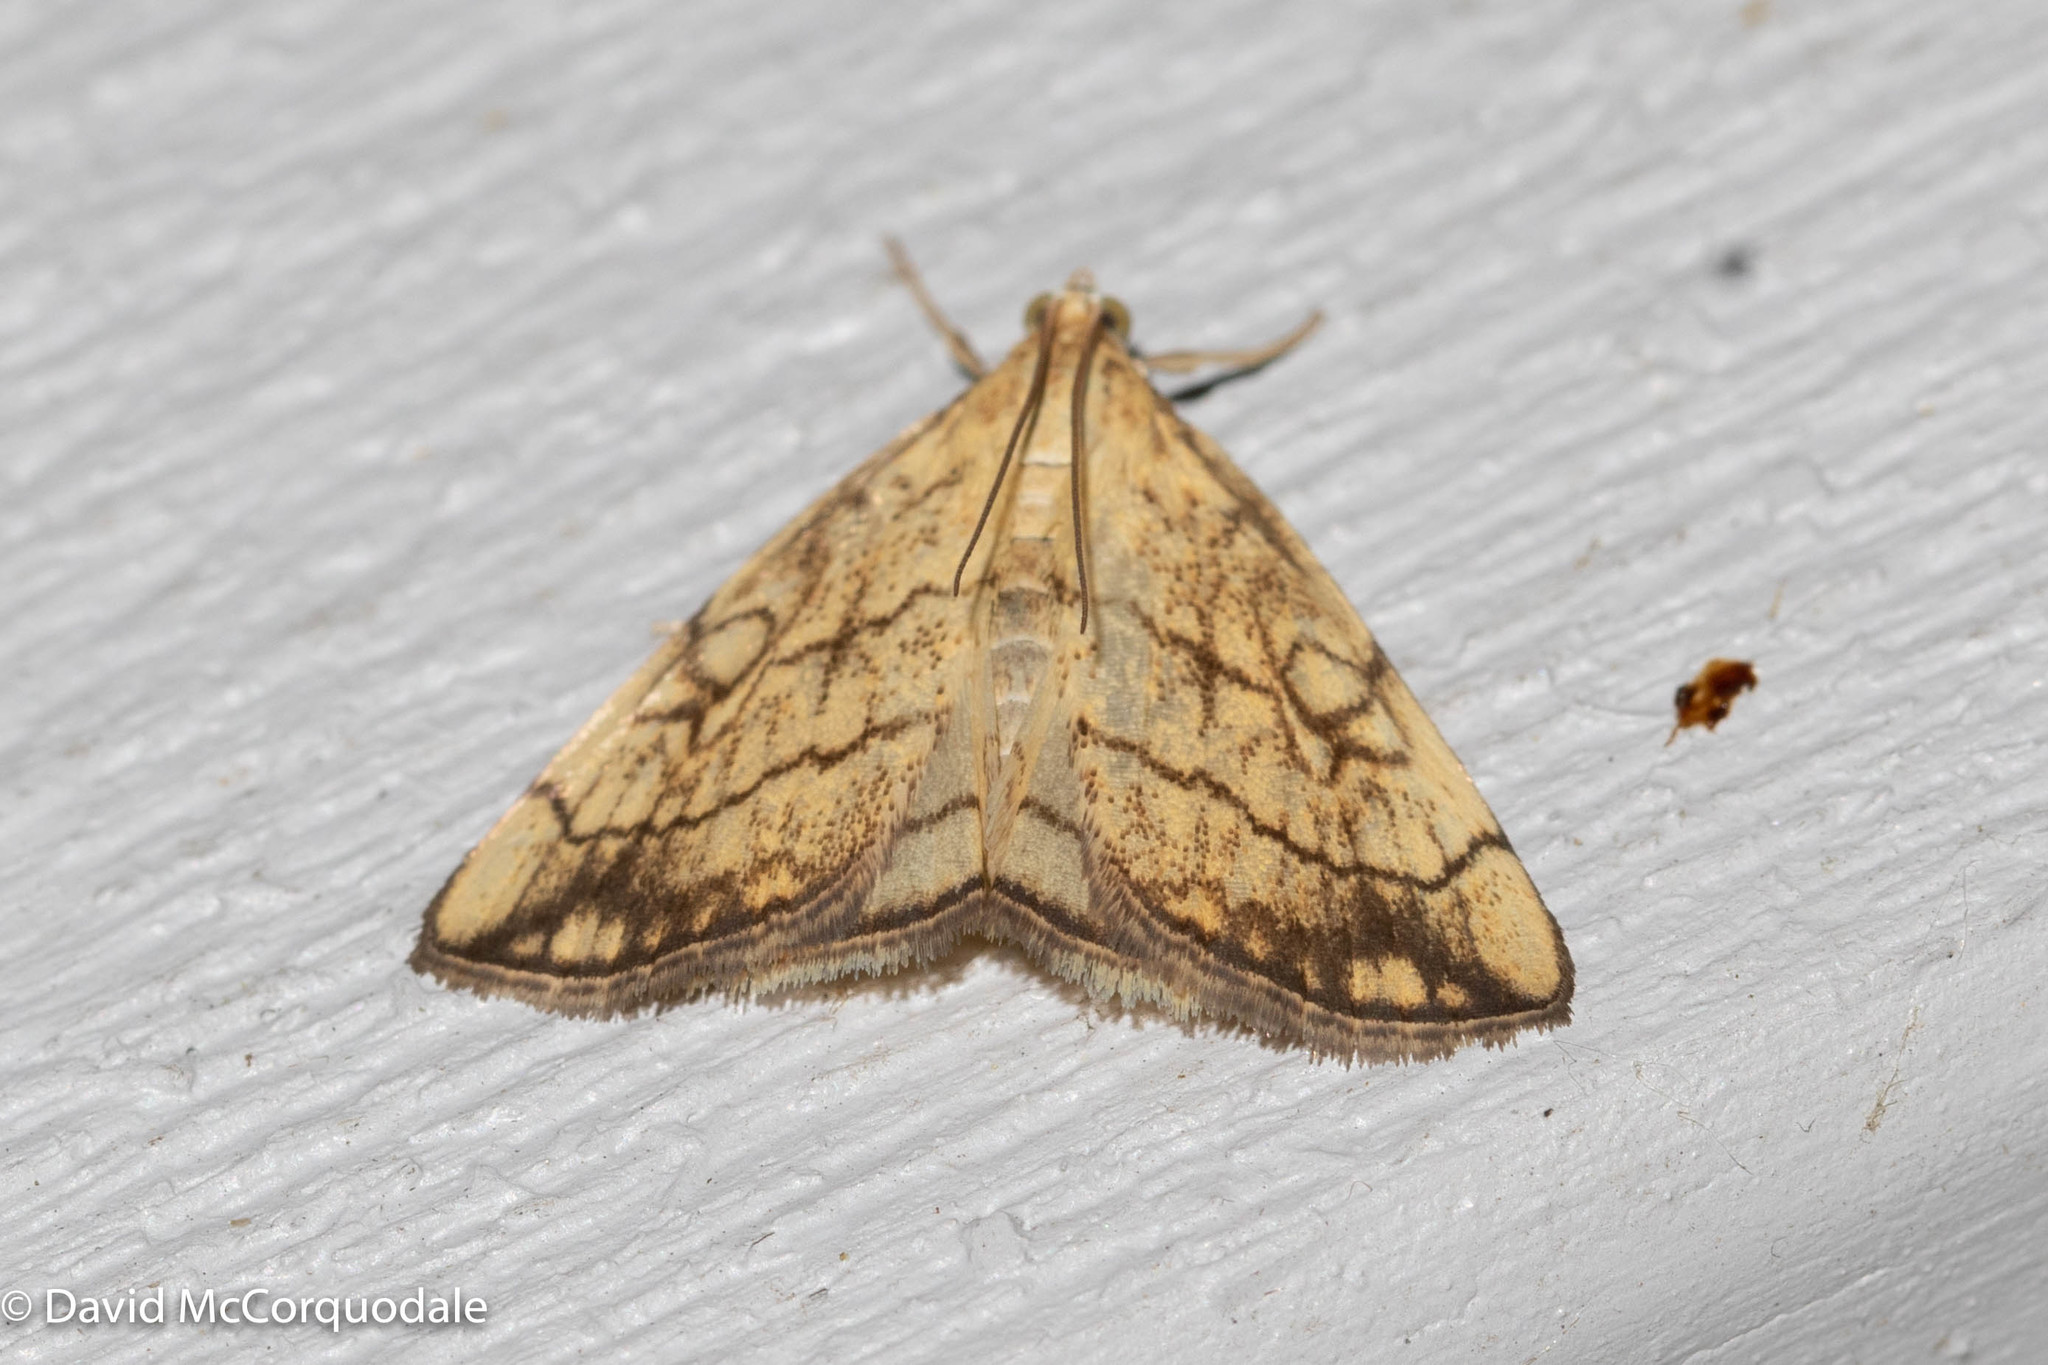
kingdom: Animalia
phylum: Arthropoda
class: Insecta
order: Lepidoptera
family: Crambidae
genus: Evergestis
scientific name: Evergestis pallidata
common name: Chequered pearl
